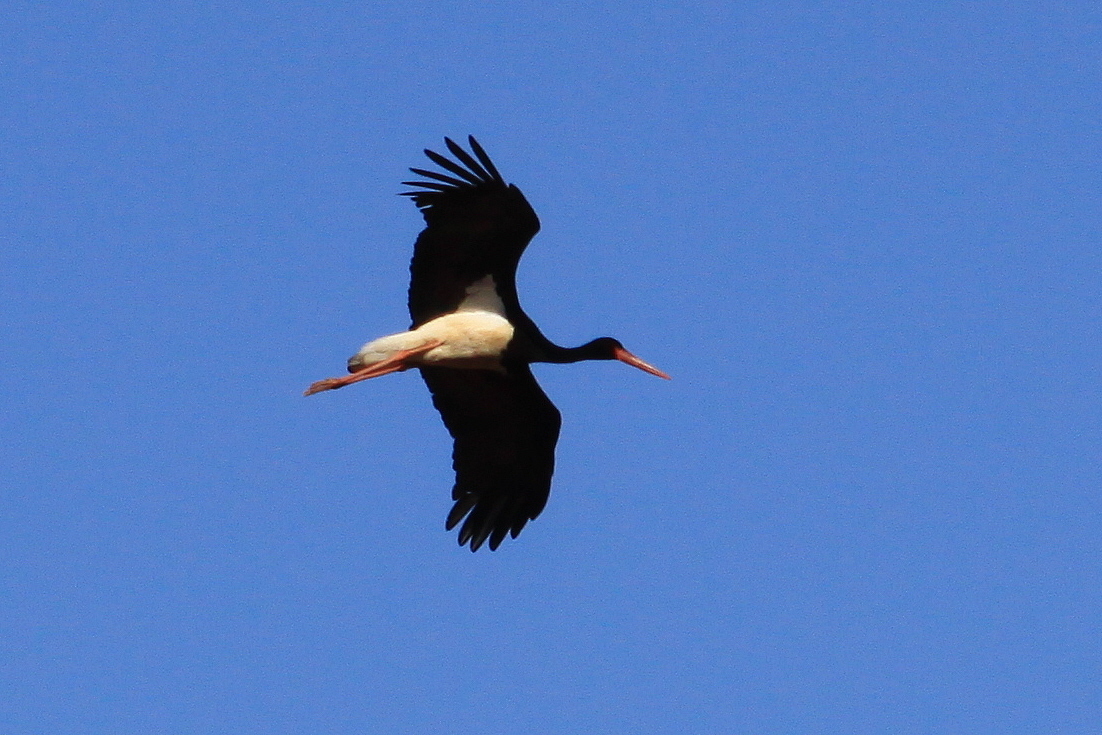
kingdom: Animalia
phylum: Chordata
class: Aves
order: Ciconiiformes
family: Ciconiidae
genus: Ciconia
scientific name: Ciconia nigra
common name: Black stork
